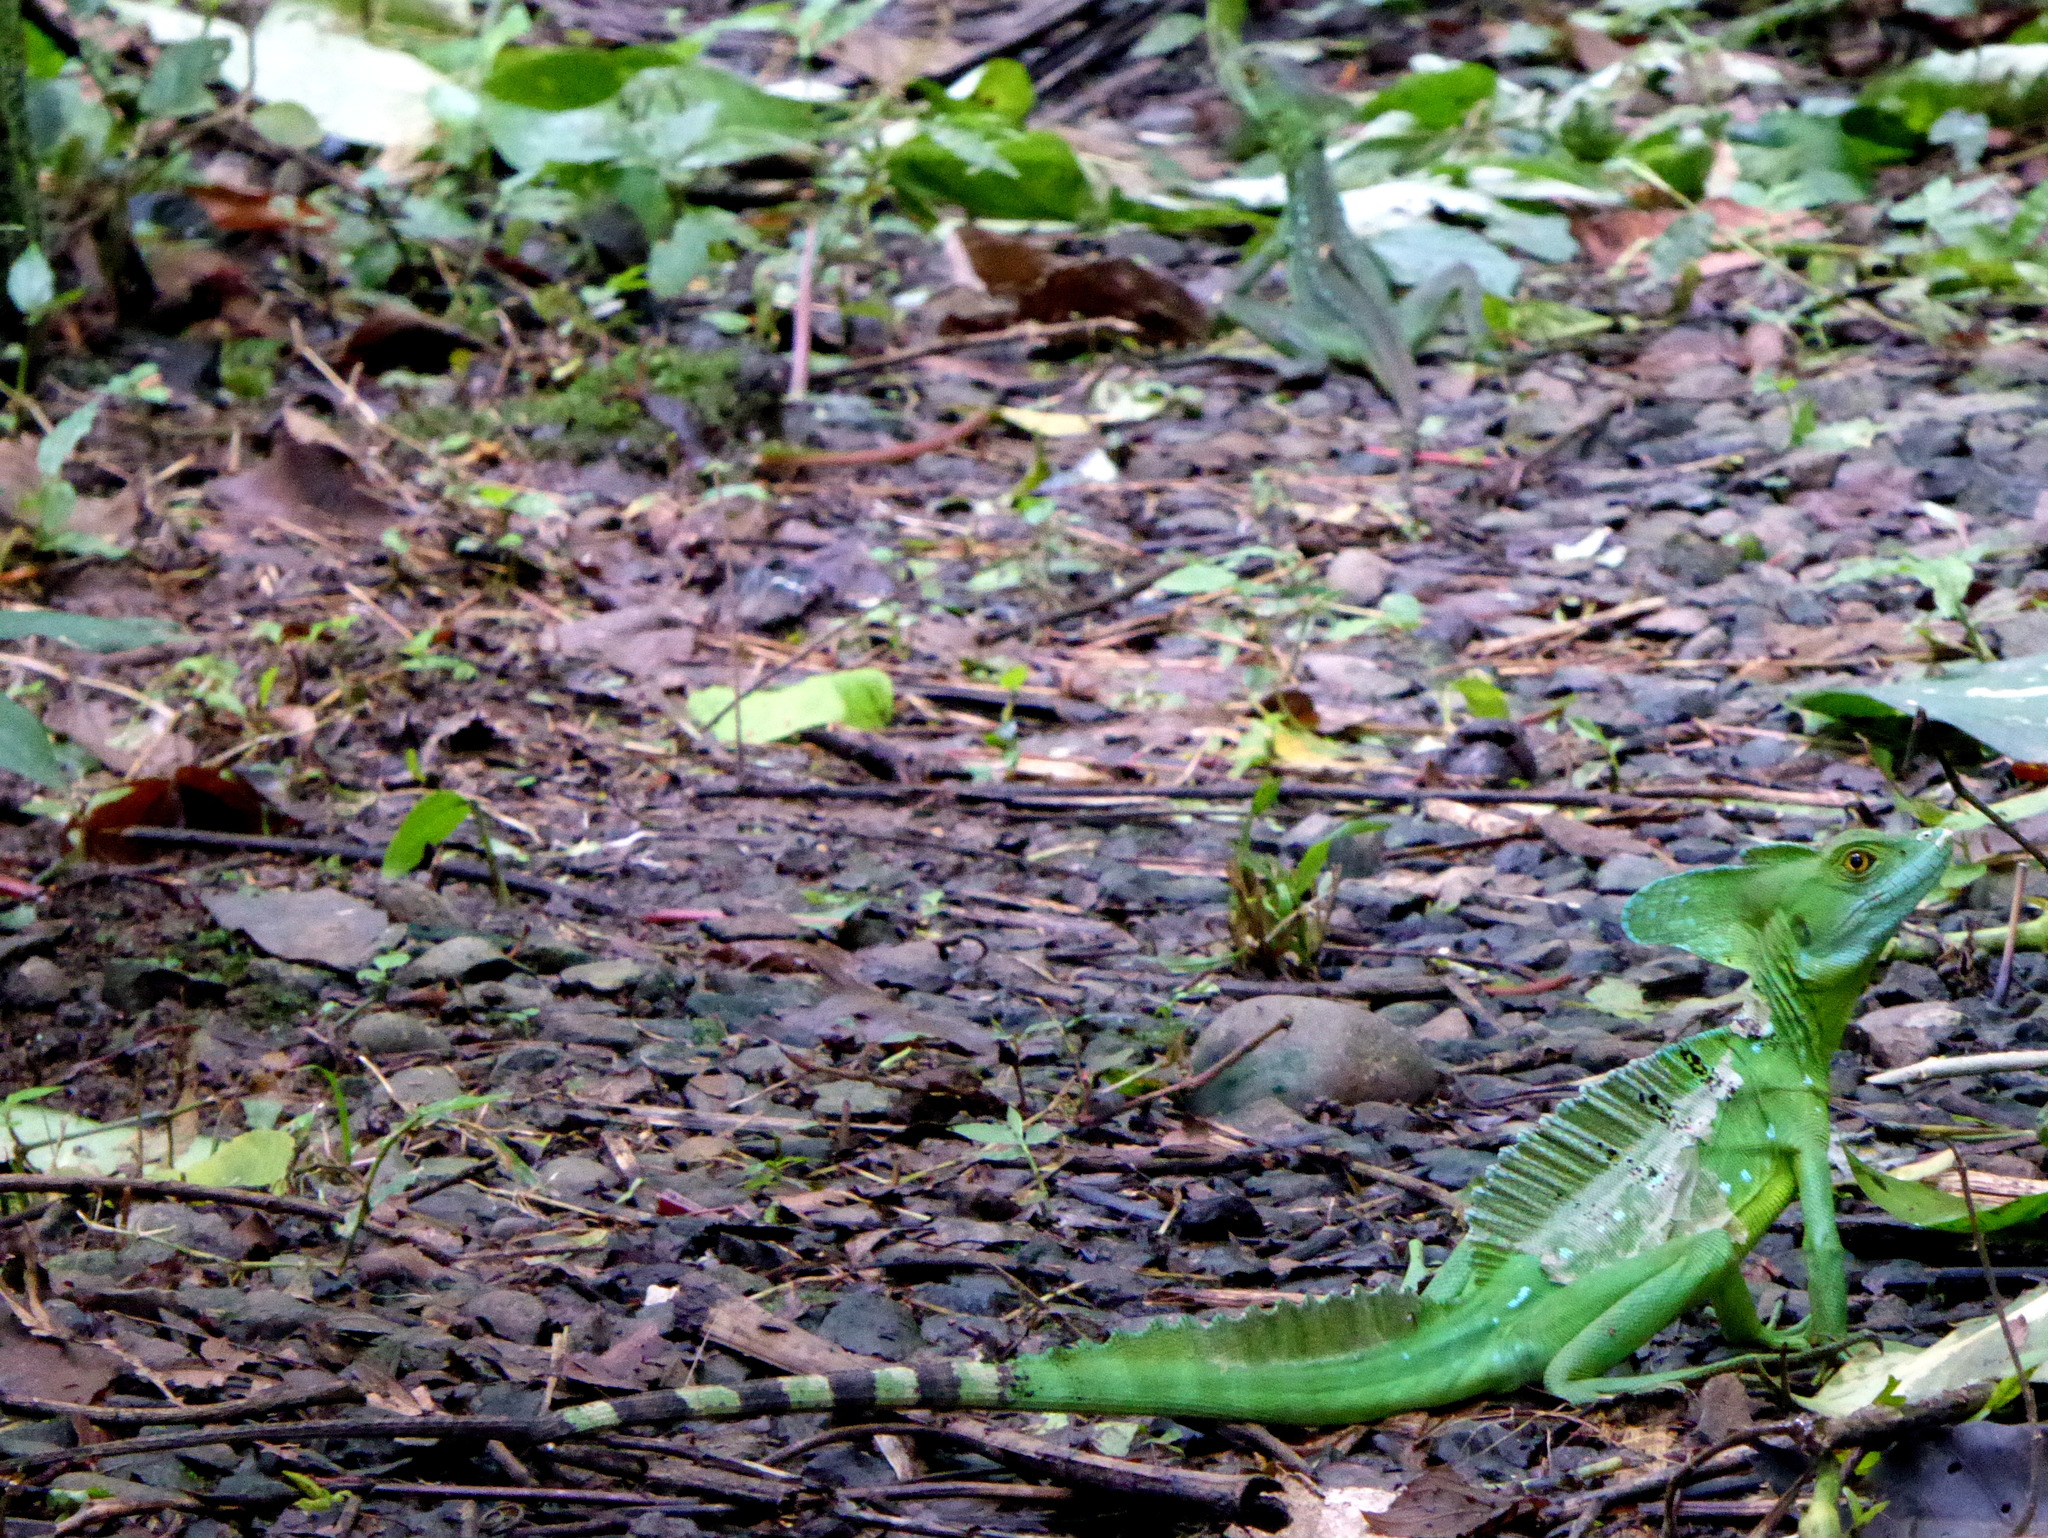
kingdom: Animalia
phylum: Chordata
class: Squamata
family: Corytophanidae
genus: Basiliscus
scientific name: Basiliscus plumifrons
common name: Green basilisk
